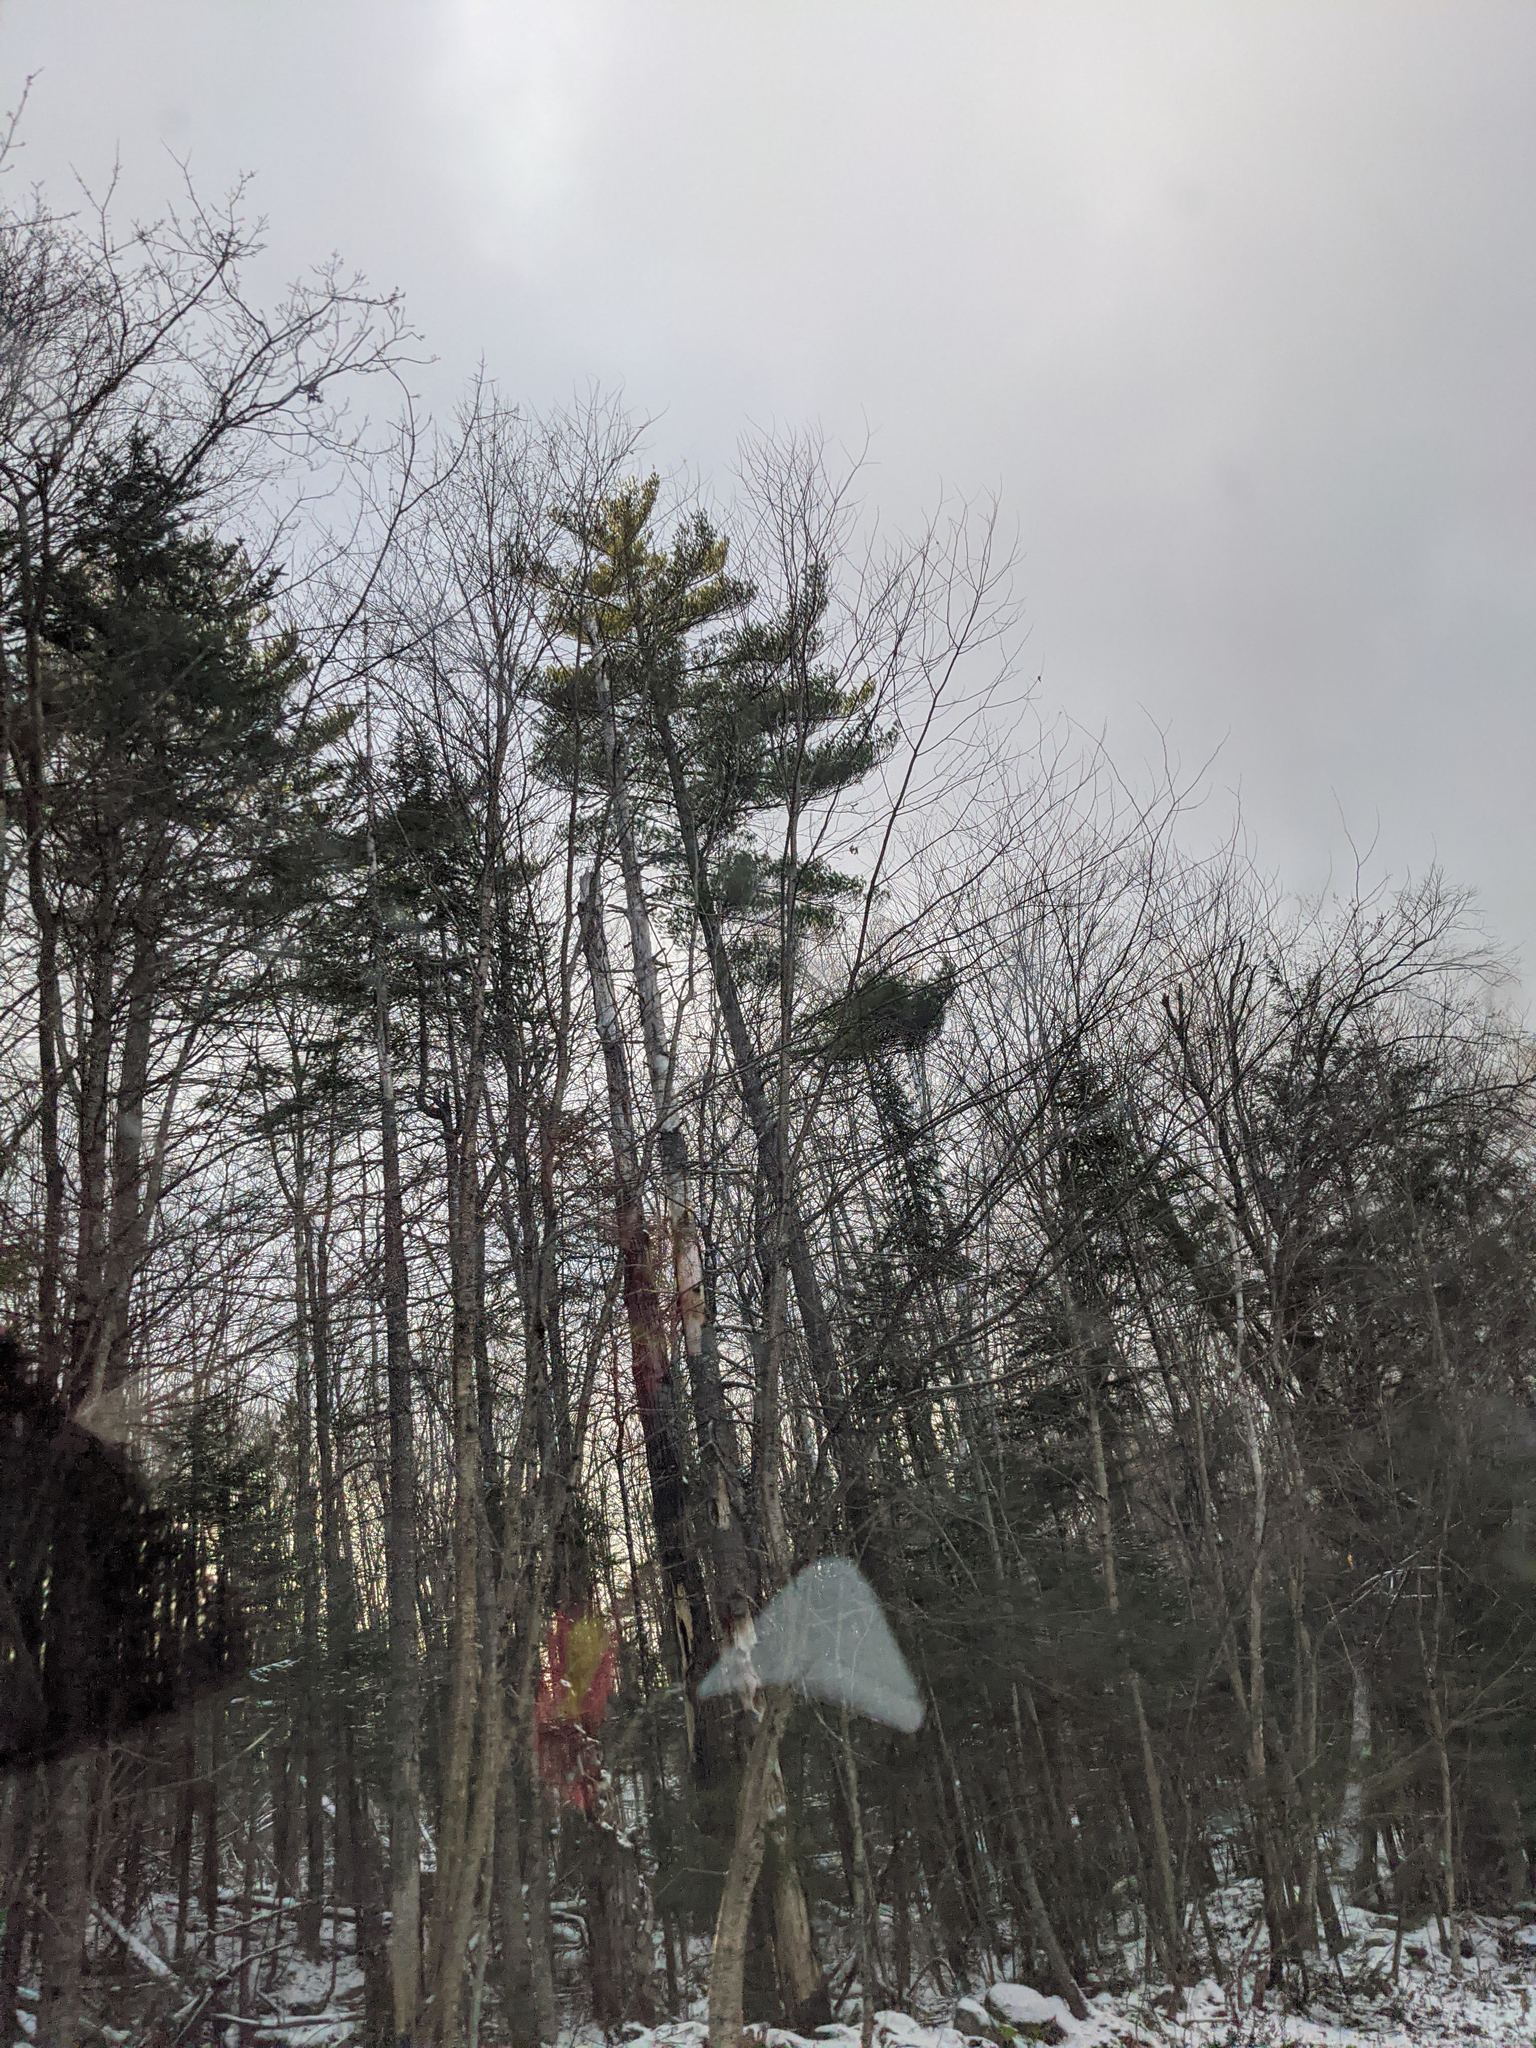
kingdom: Plantae
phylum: Tracheophyta
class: Pinopsida
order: Pinales
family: Pinaceae
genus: Pinus
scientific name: Pinus strobus
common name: Weymouth pine
